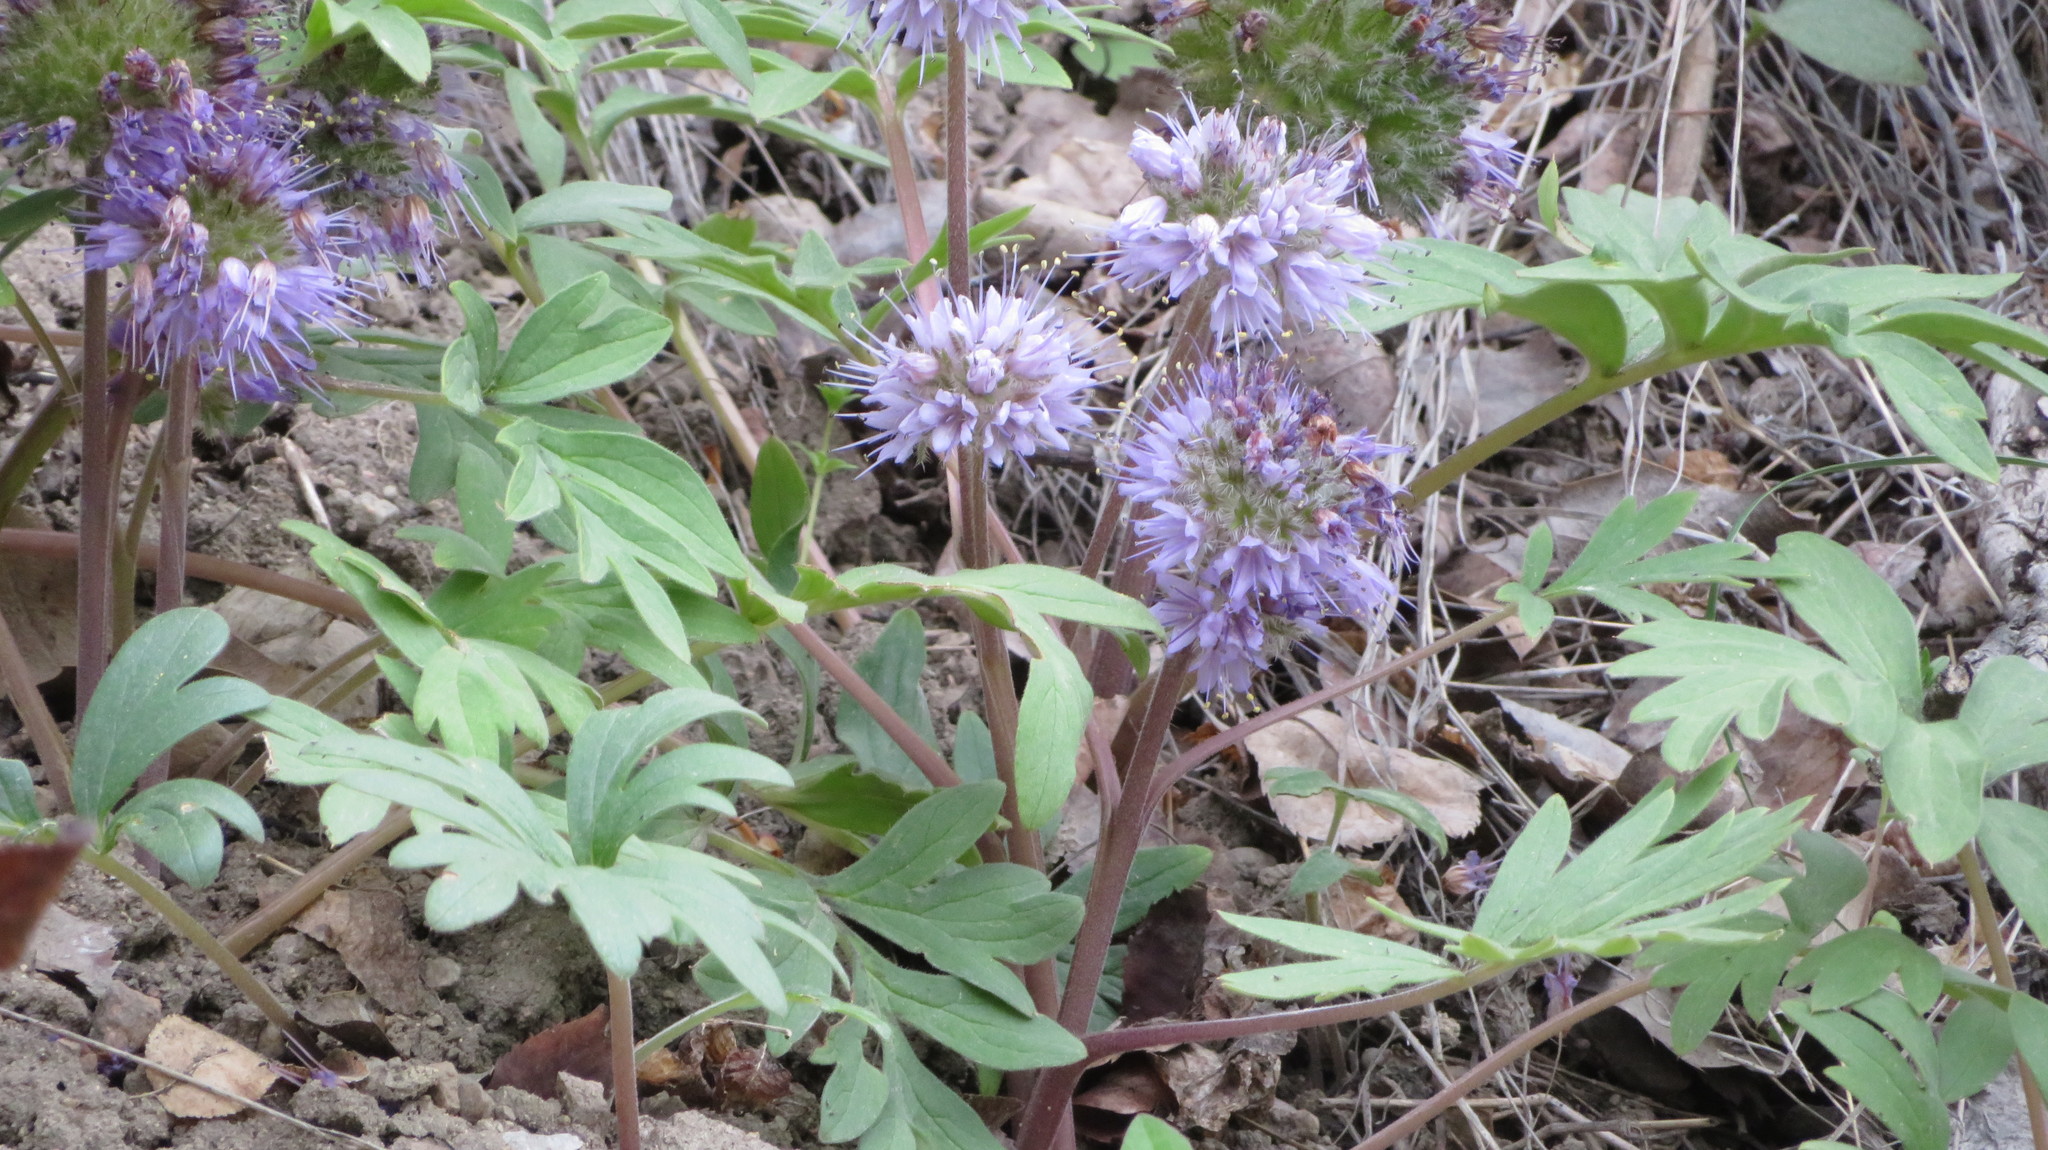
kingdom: Plantae
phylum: Tracheophyta
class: Magnoliopsida
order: Boraginales
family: Hydrophyllaceae
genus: Hydrophyllum
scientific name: Hydrophyllum capitatum
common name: Woollen-breeches
